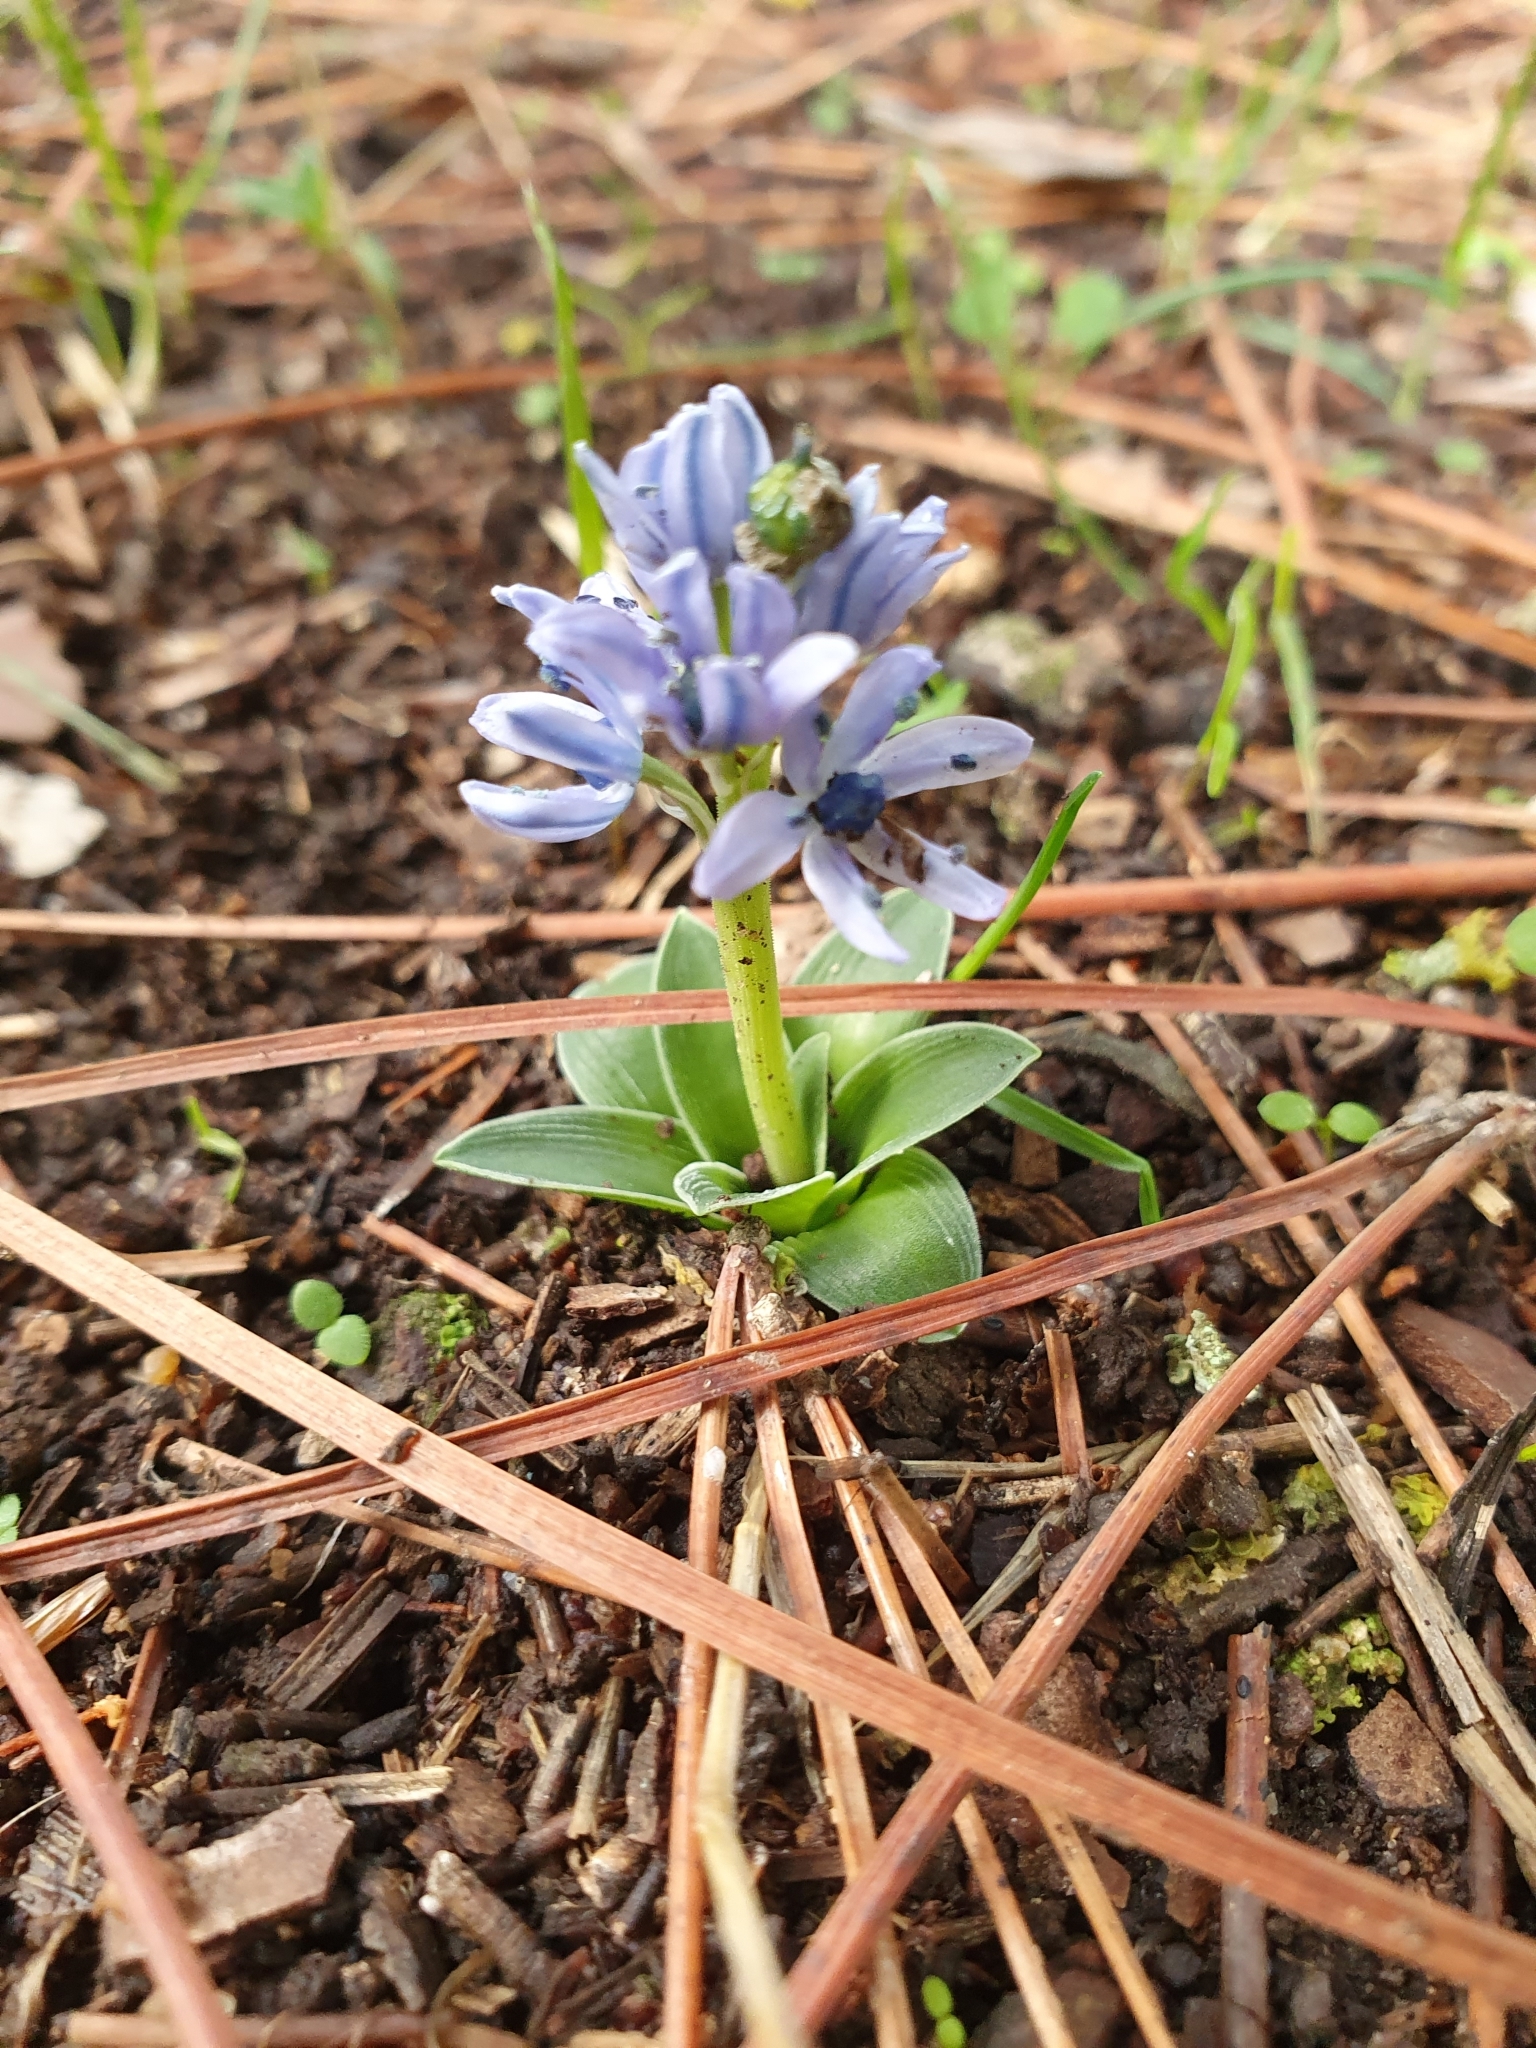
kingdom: Plantae
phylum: Tracheophyta
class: Liliopsida
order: Asparagales
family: Asparagaceae
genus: Hyacinthoides
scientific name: Hyacinthoides lingulata
